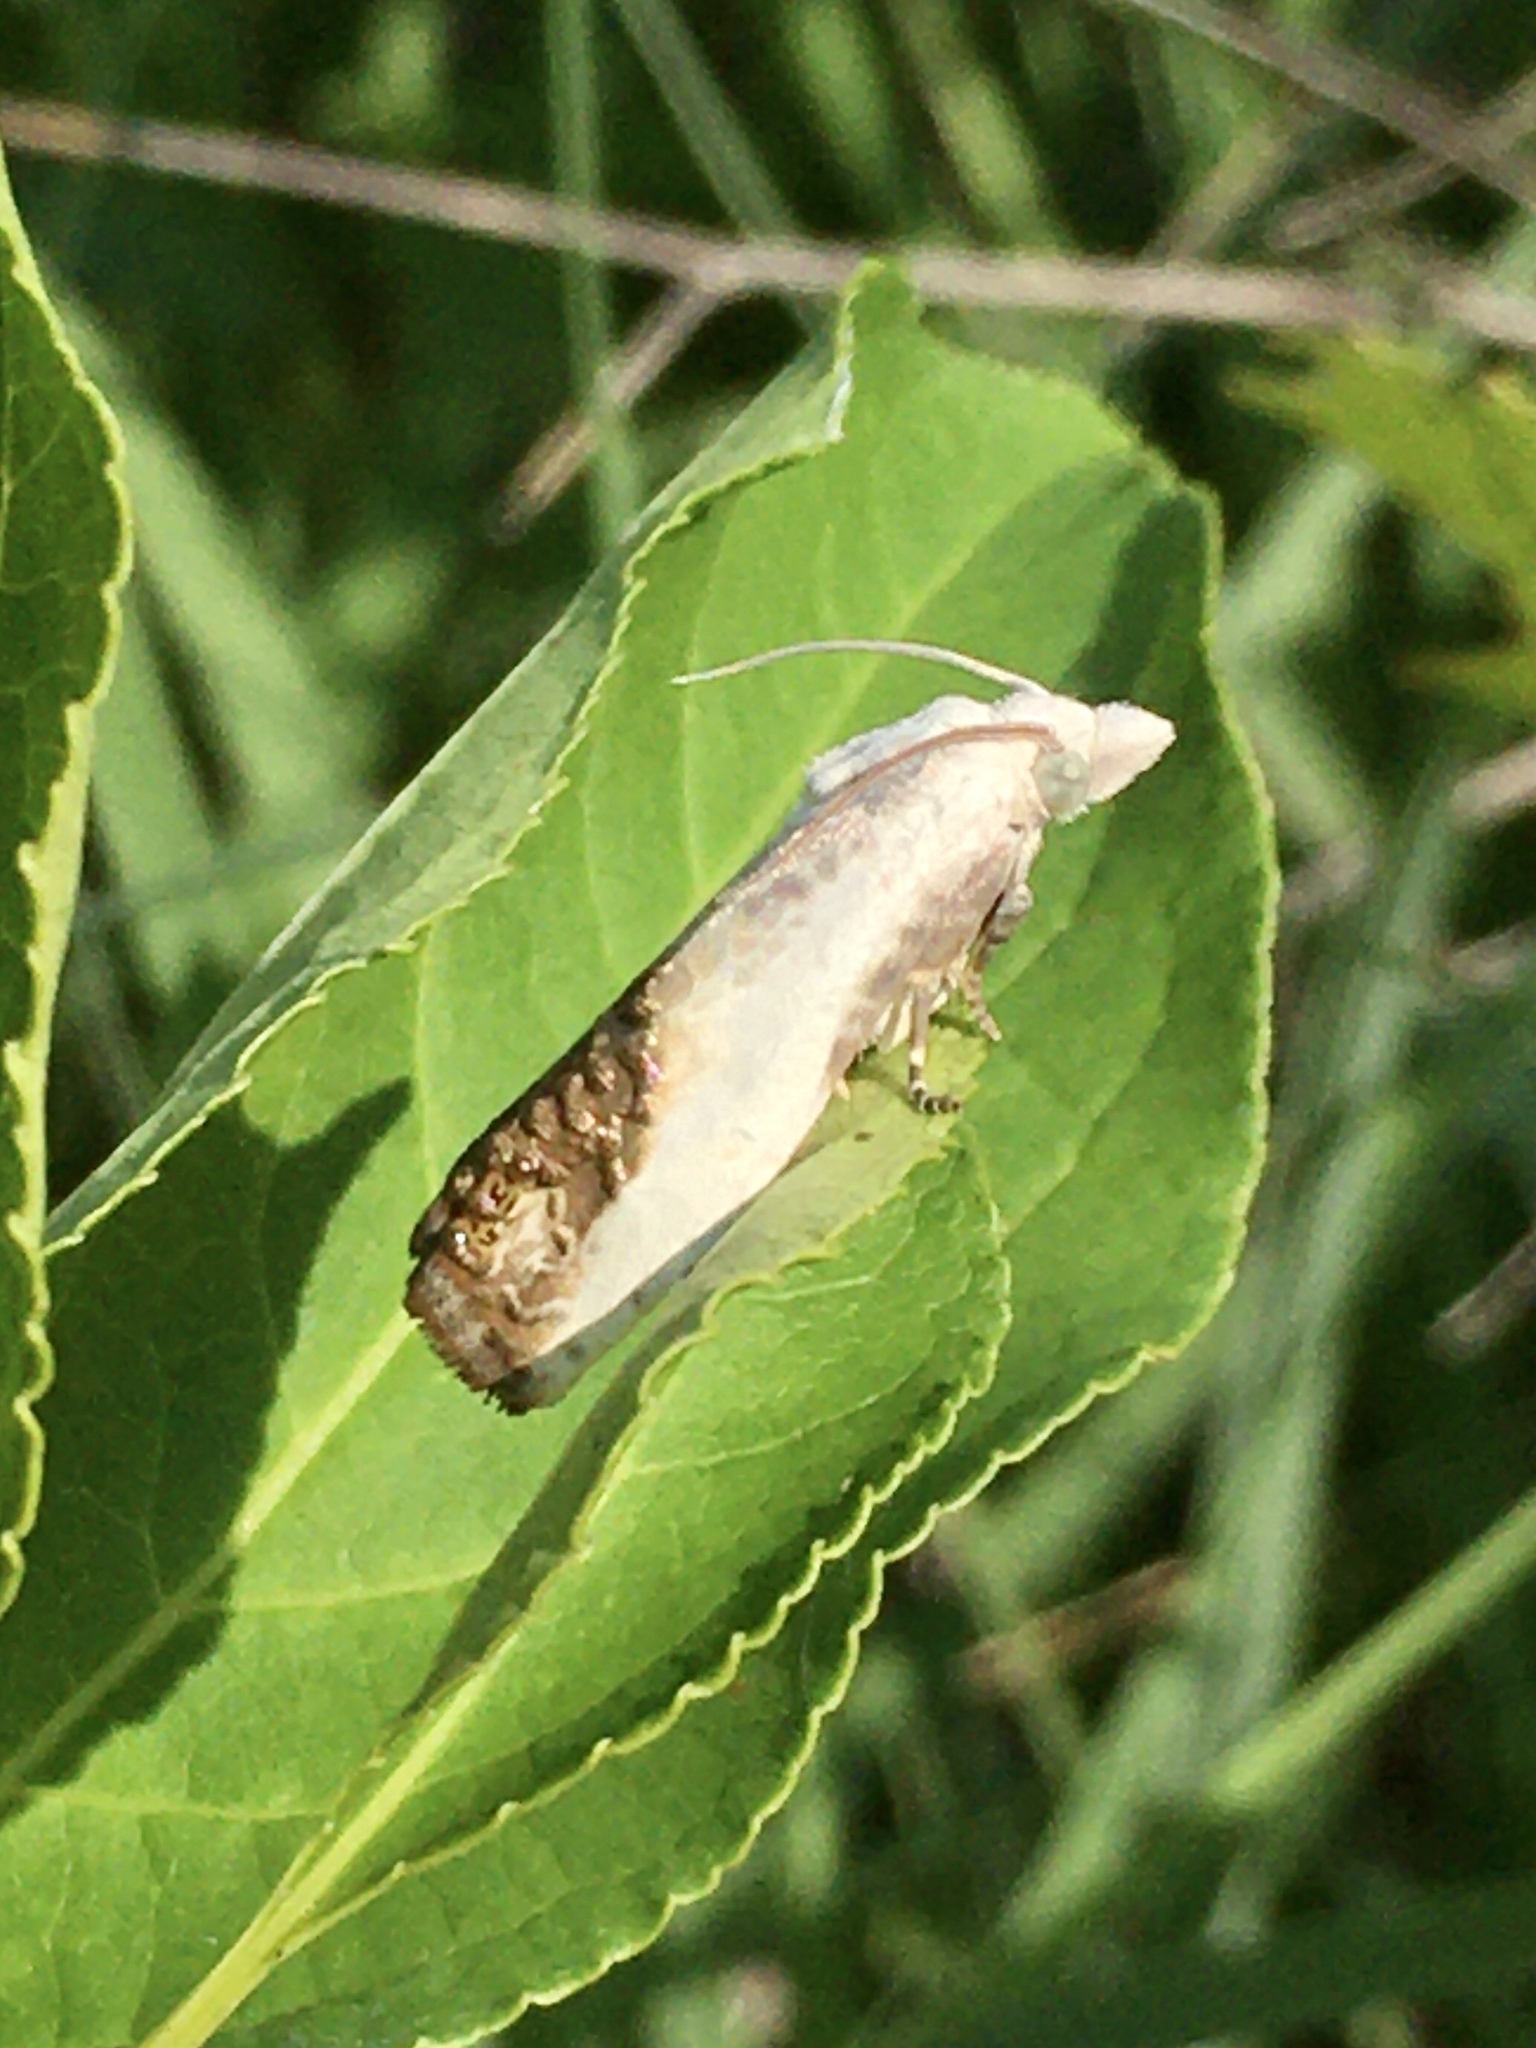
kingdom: Animalia
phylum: Arthropoda
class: Insecta
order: Lepidoptera
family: Tortricidae
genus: Eucosma
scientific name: Eucosma giganteana
